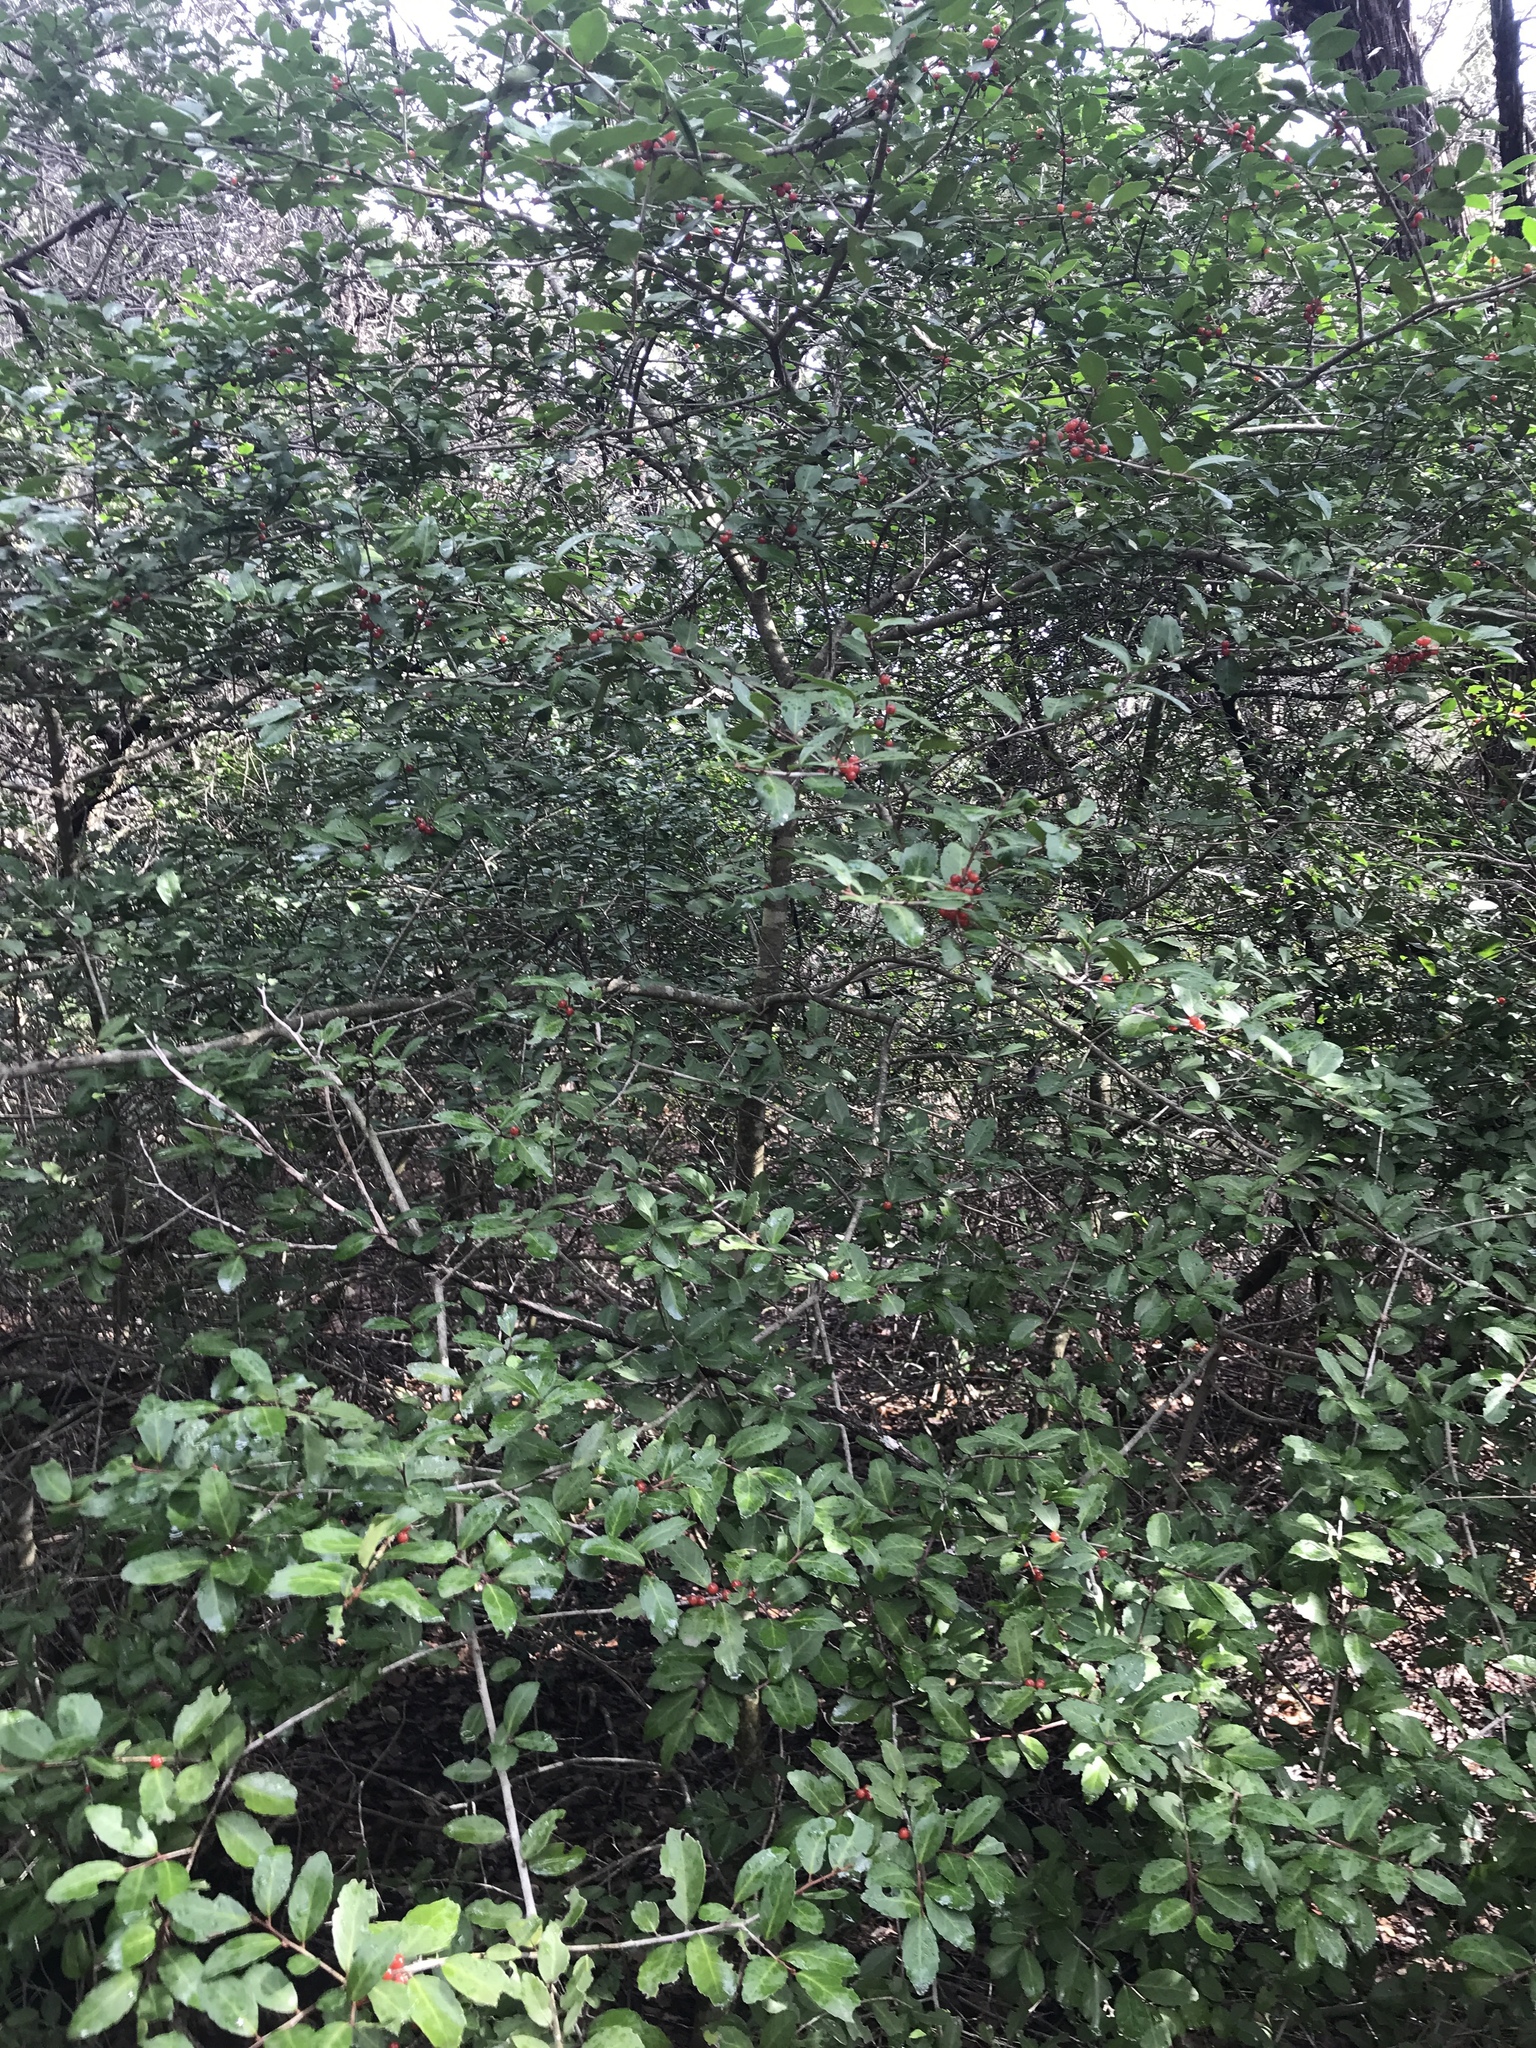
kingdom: Plantae
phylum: Tracheophyta
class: Magnoliopsida
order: Aquifoliales
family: Aquifoliaceae
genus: Ilex
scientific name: Ilex vomitoria
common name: Yaupon holly
